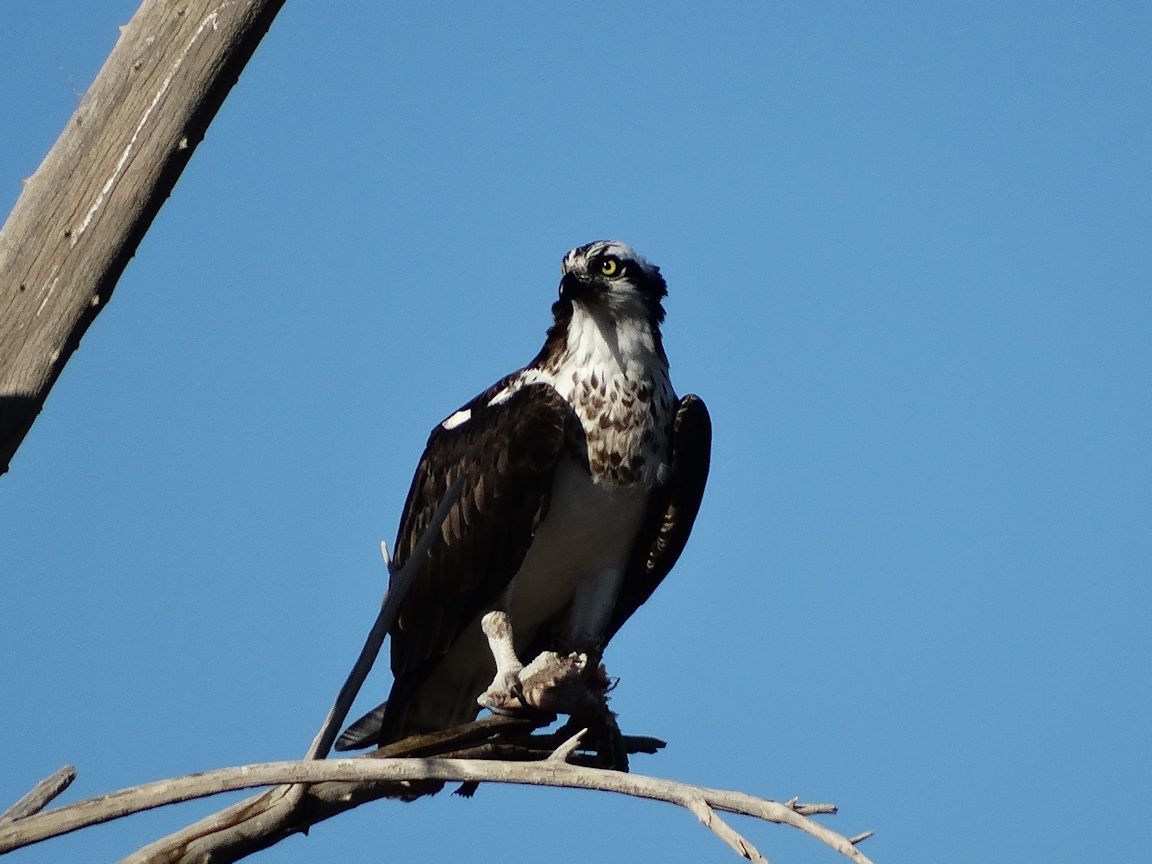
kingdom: Animalia
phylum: Chordata
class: Aves
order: Accipitriformes
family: Pandionidae
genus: Pandion
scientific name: Pandion haliaetus
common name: Osprey
